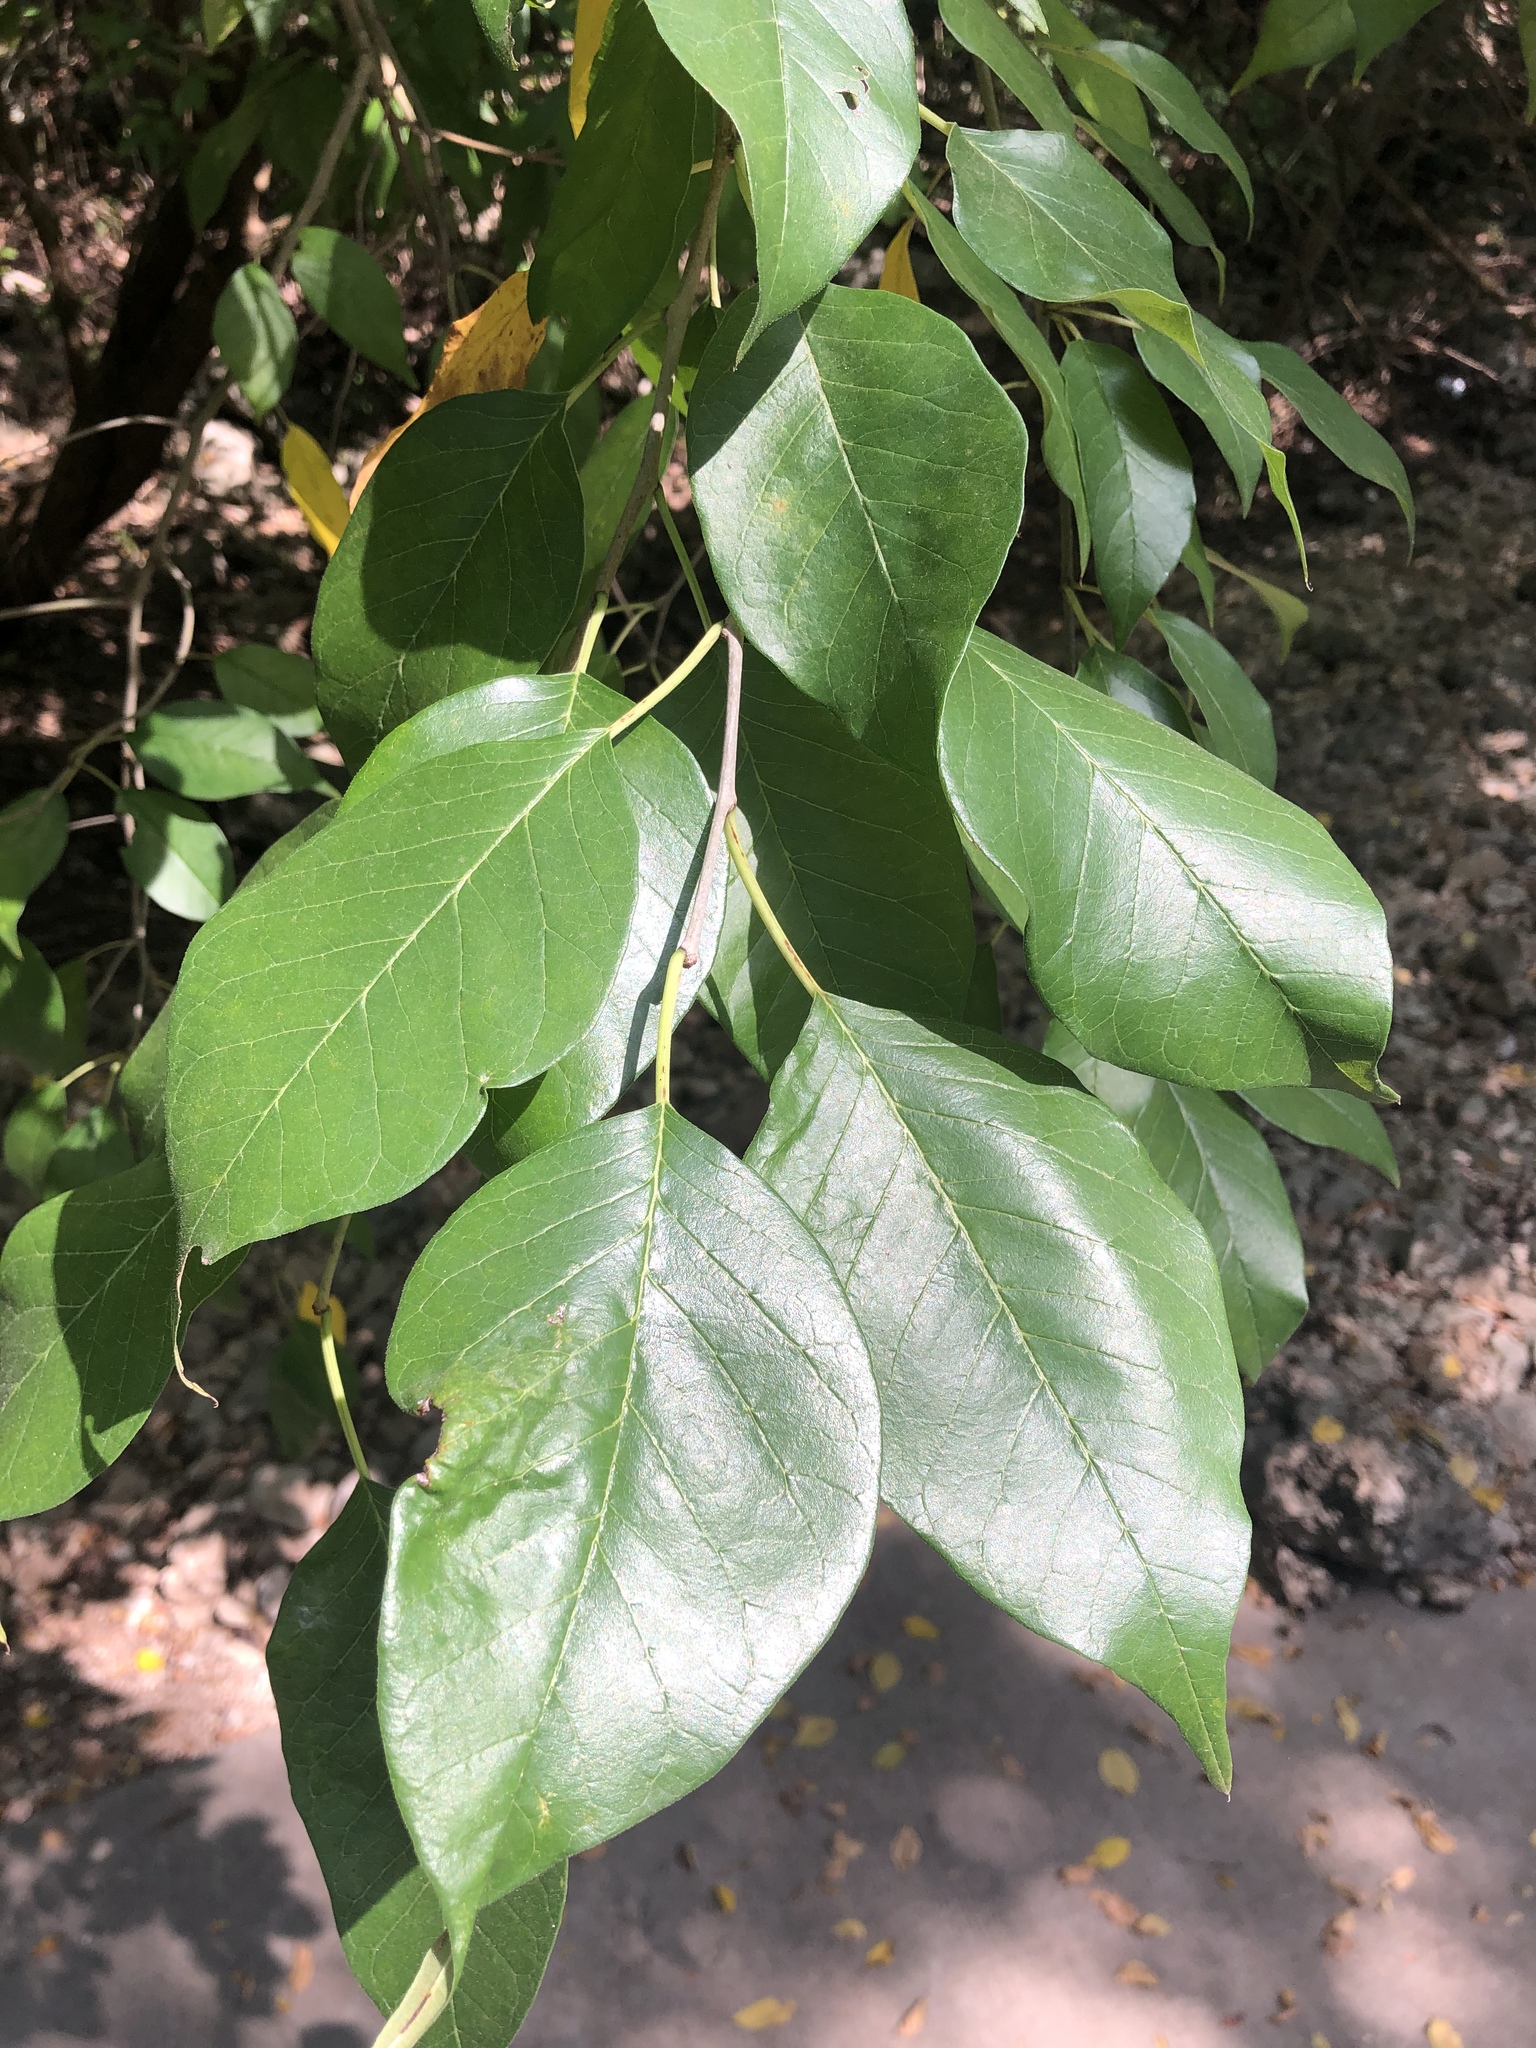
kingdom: Plantae
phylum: Tracheophyta
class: Magnoliopsida
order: Rosales
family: Moraceae
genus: Maclura
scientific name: Maclura pomifera
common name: Osage-orange
